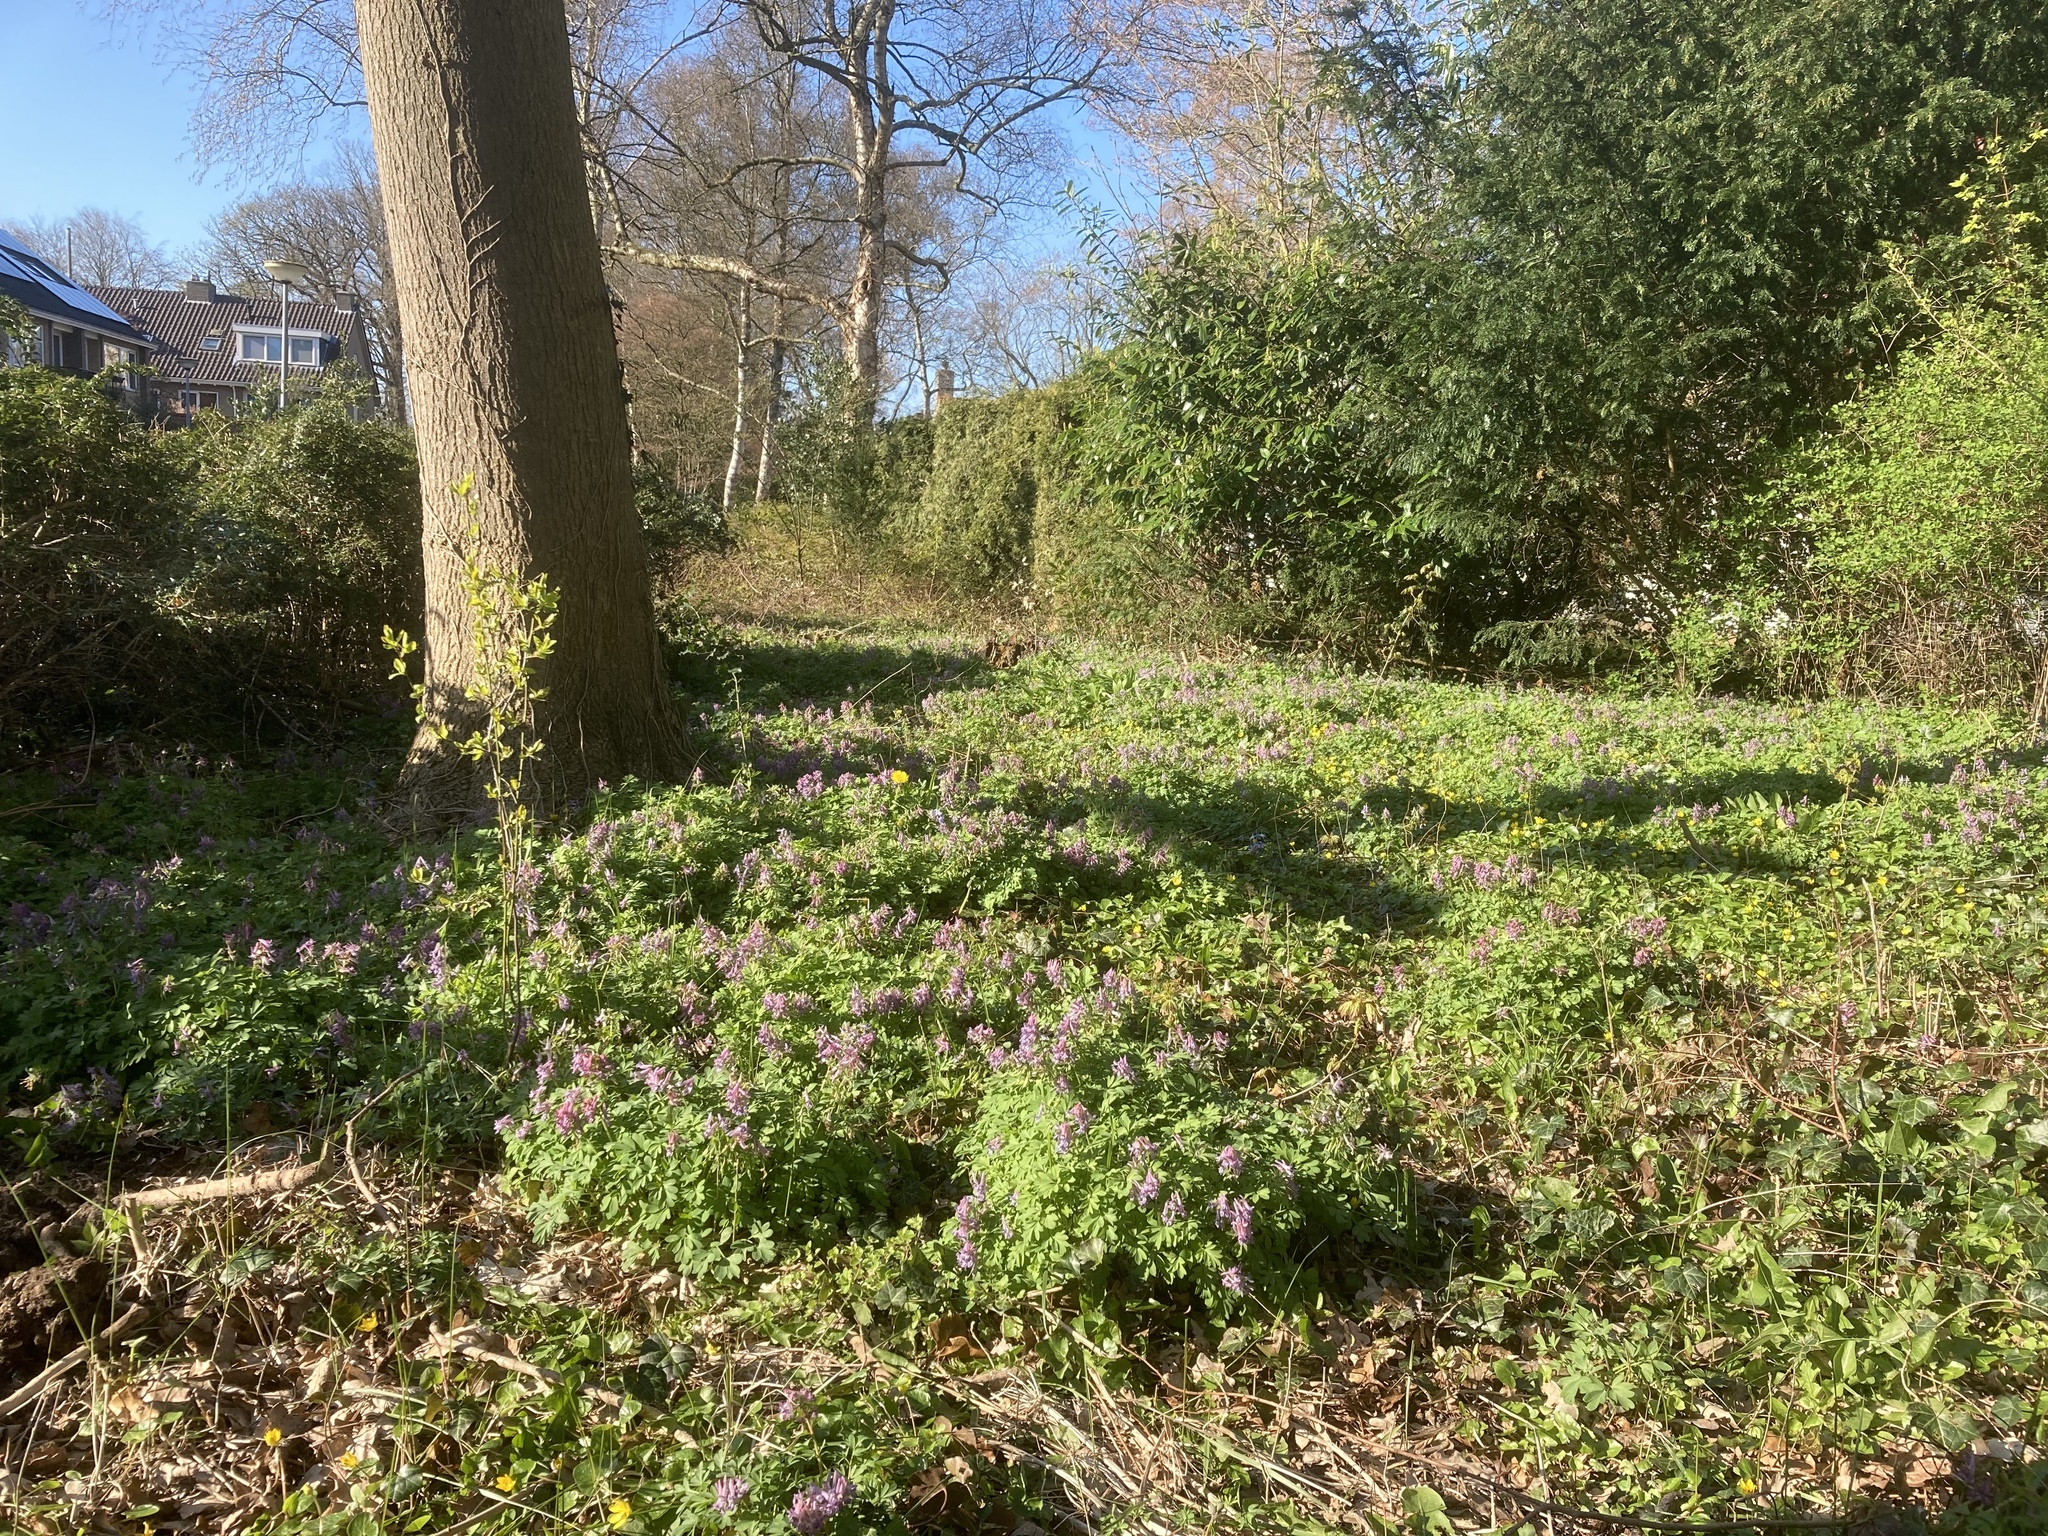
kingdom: Plantae
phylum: Tracheophyta
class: Magnoliopsida
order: Ranunculales
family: Papaveraceae
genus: Corydalis
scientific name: Corydalis solida
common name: Bird-in-a-bush
